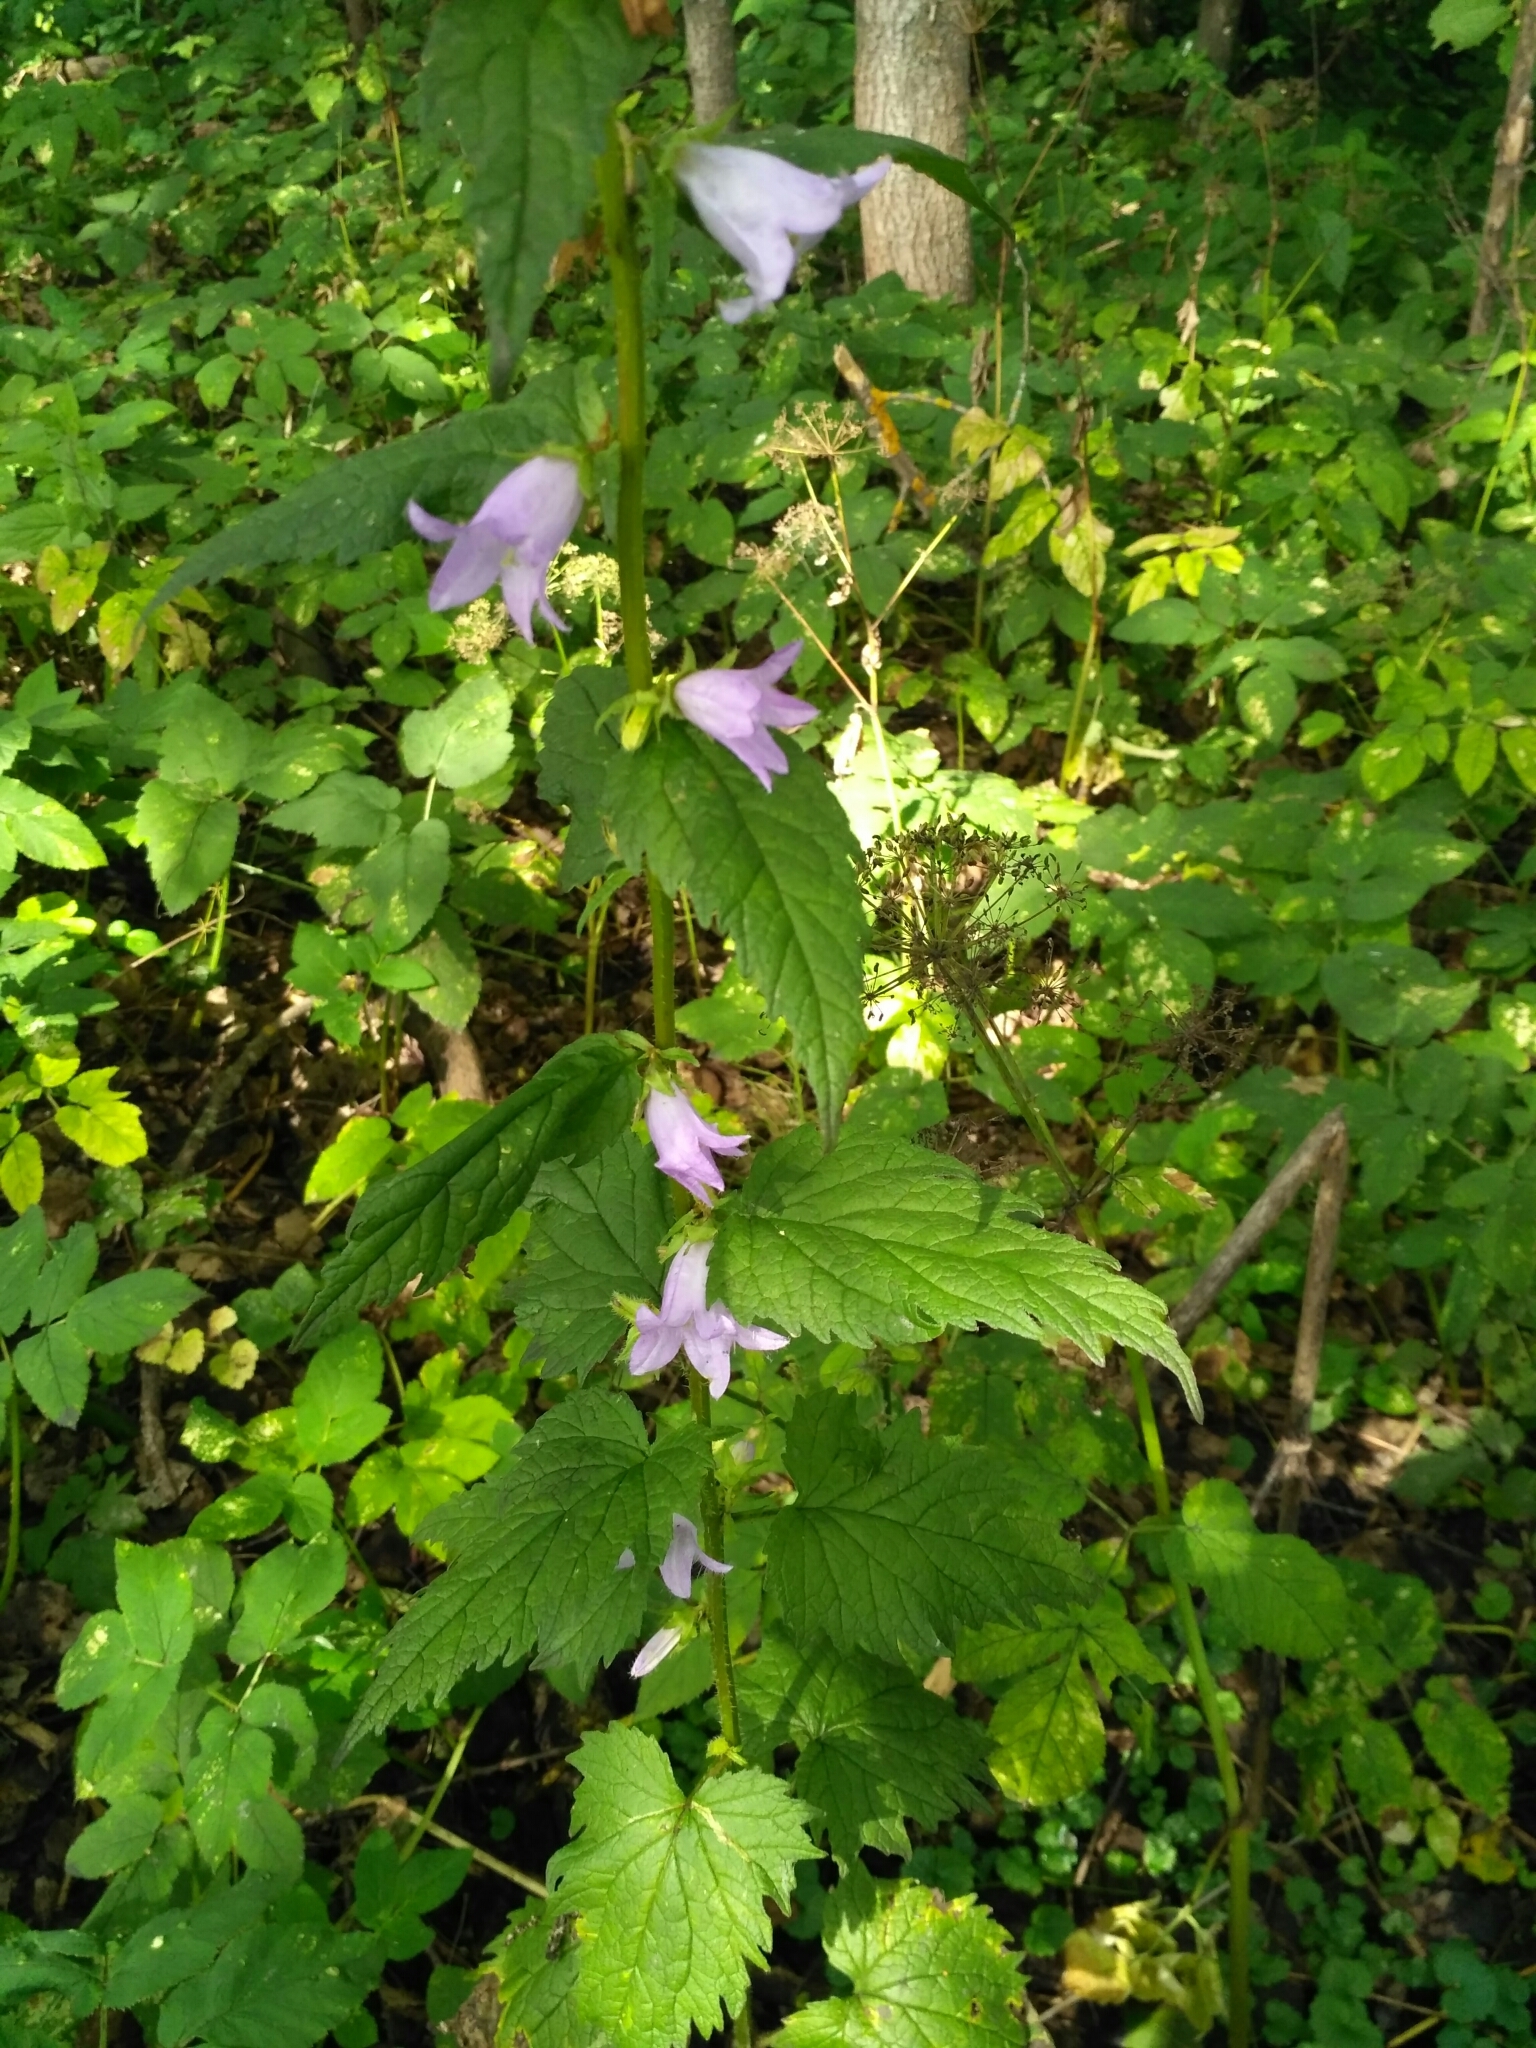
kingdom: Plantae
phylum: Tracheophyta
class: Magnoliopsida
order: Asterales
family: Campanulaceae
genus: Campanula
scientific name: Campanula trachelium
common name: Nettle-leaved bellflower
